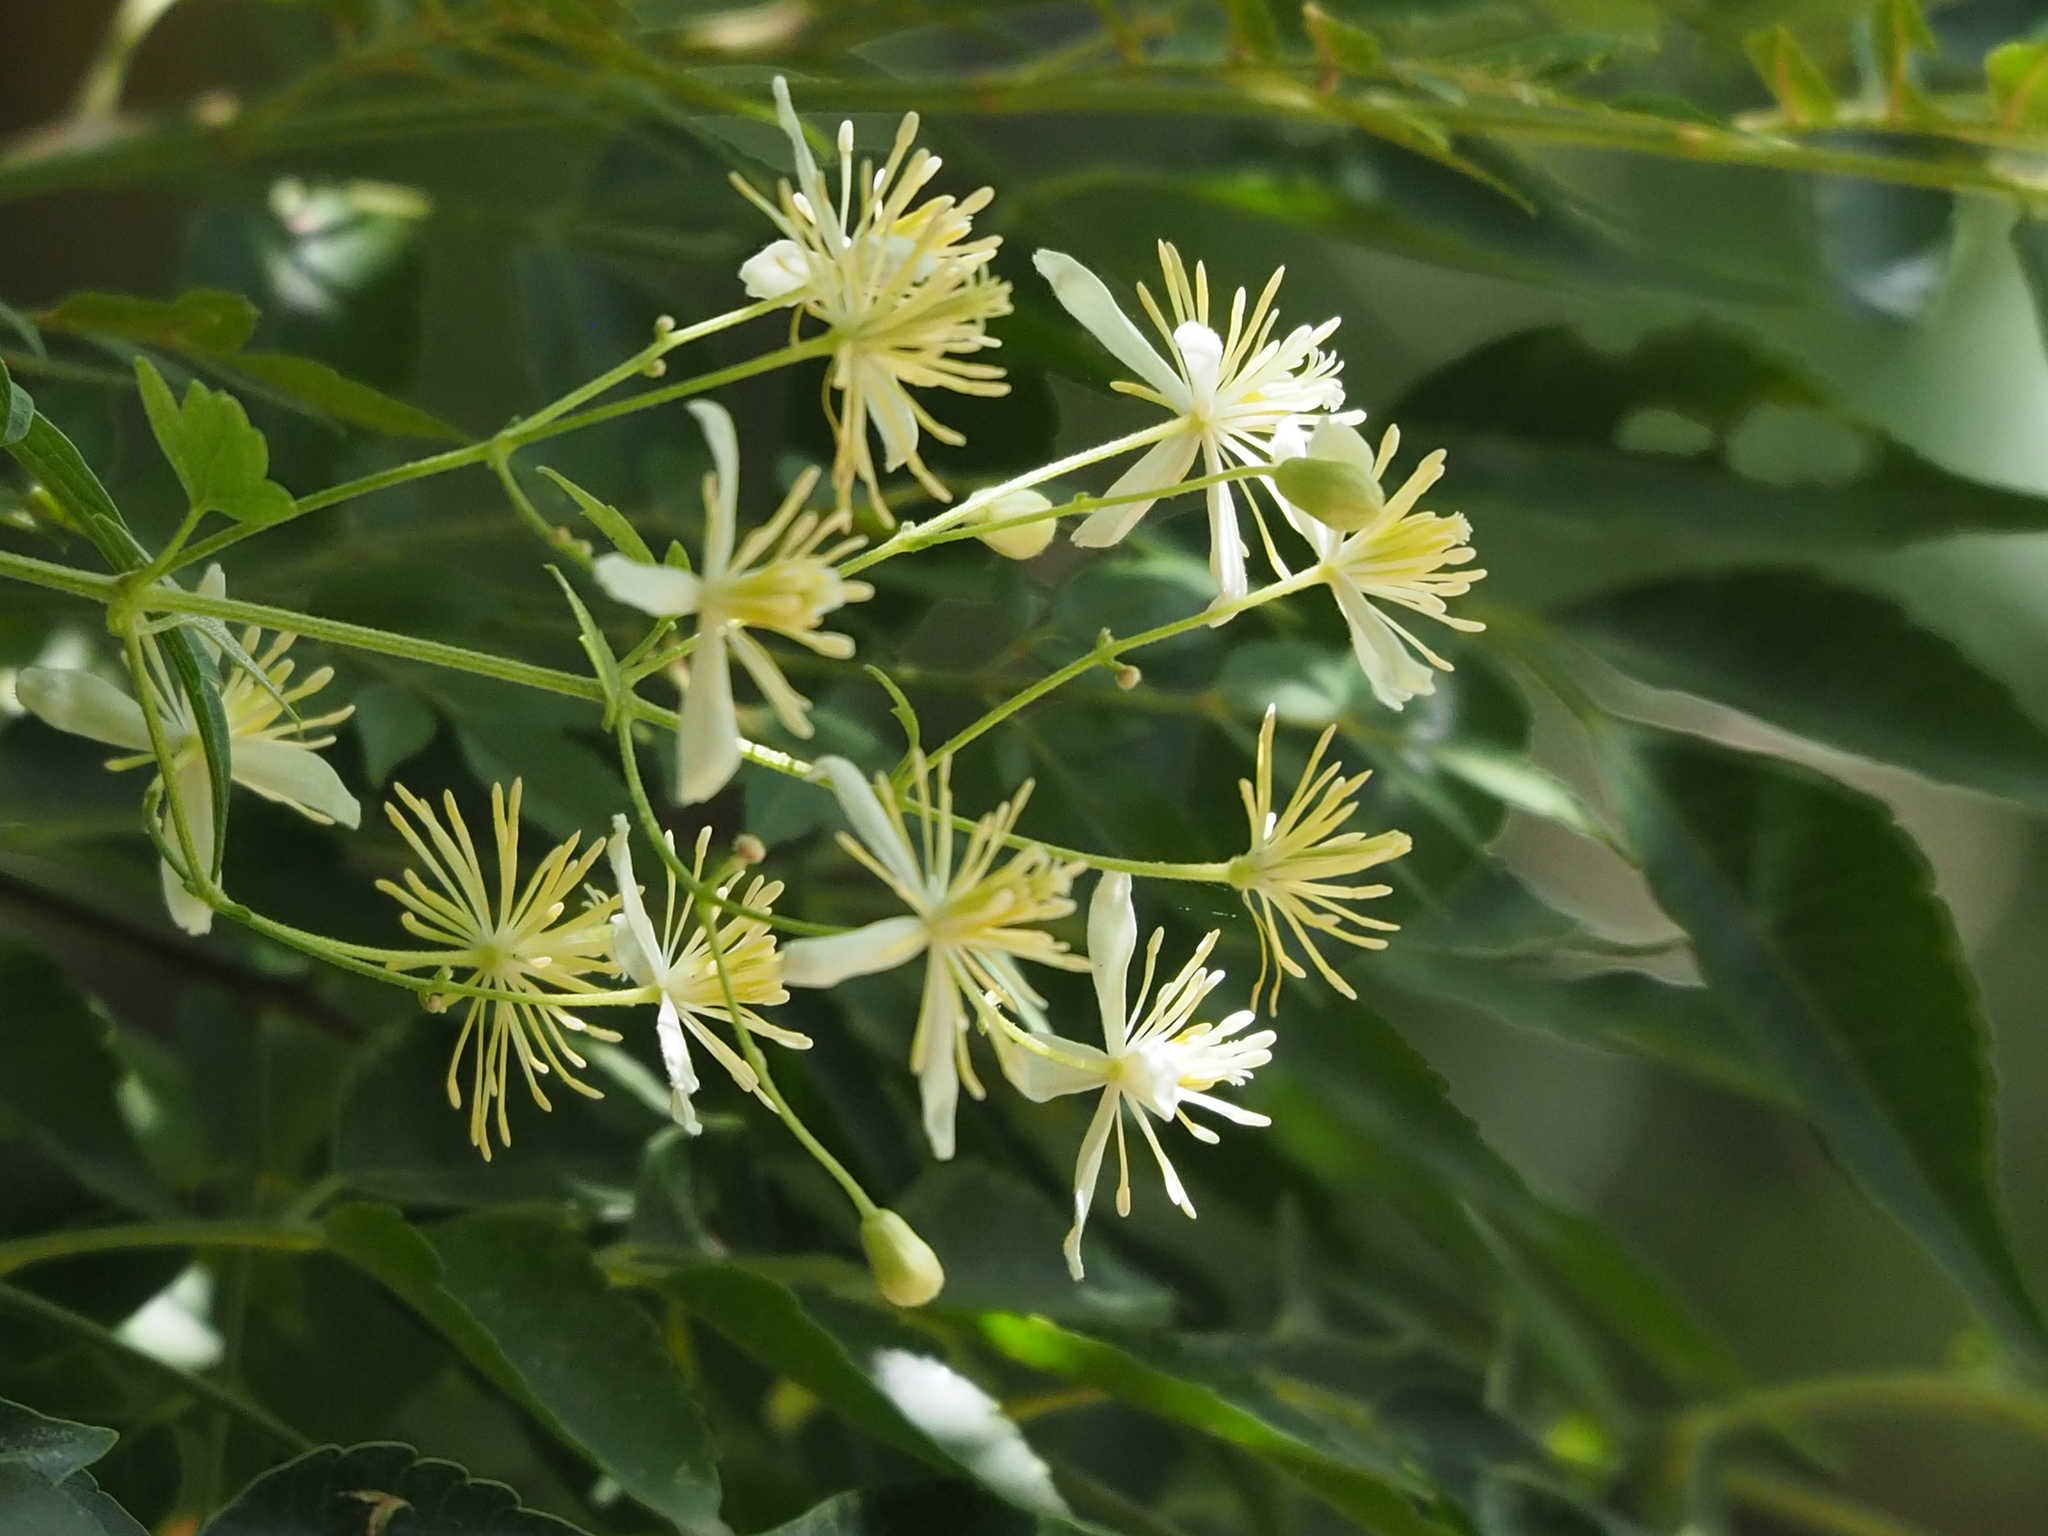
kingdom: Plantae
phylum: Tracheophyta
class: Magnoliopsida
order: Ranunculales
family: Ranunculaceae
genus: Clematis
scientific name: Clematis grata
